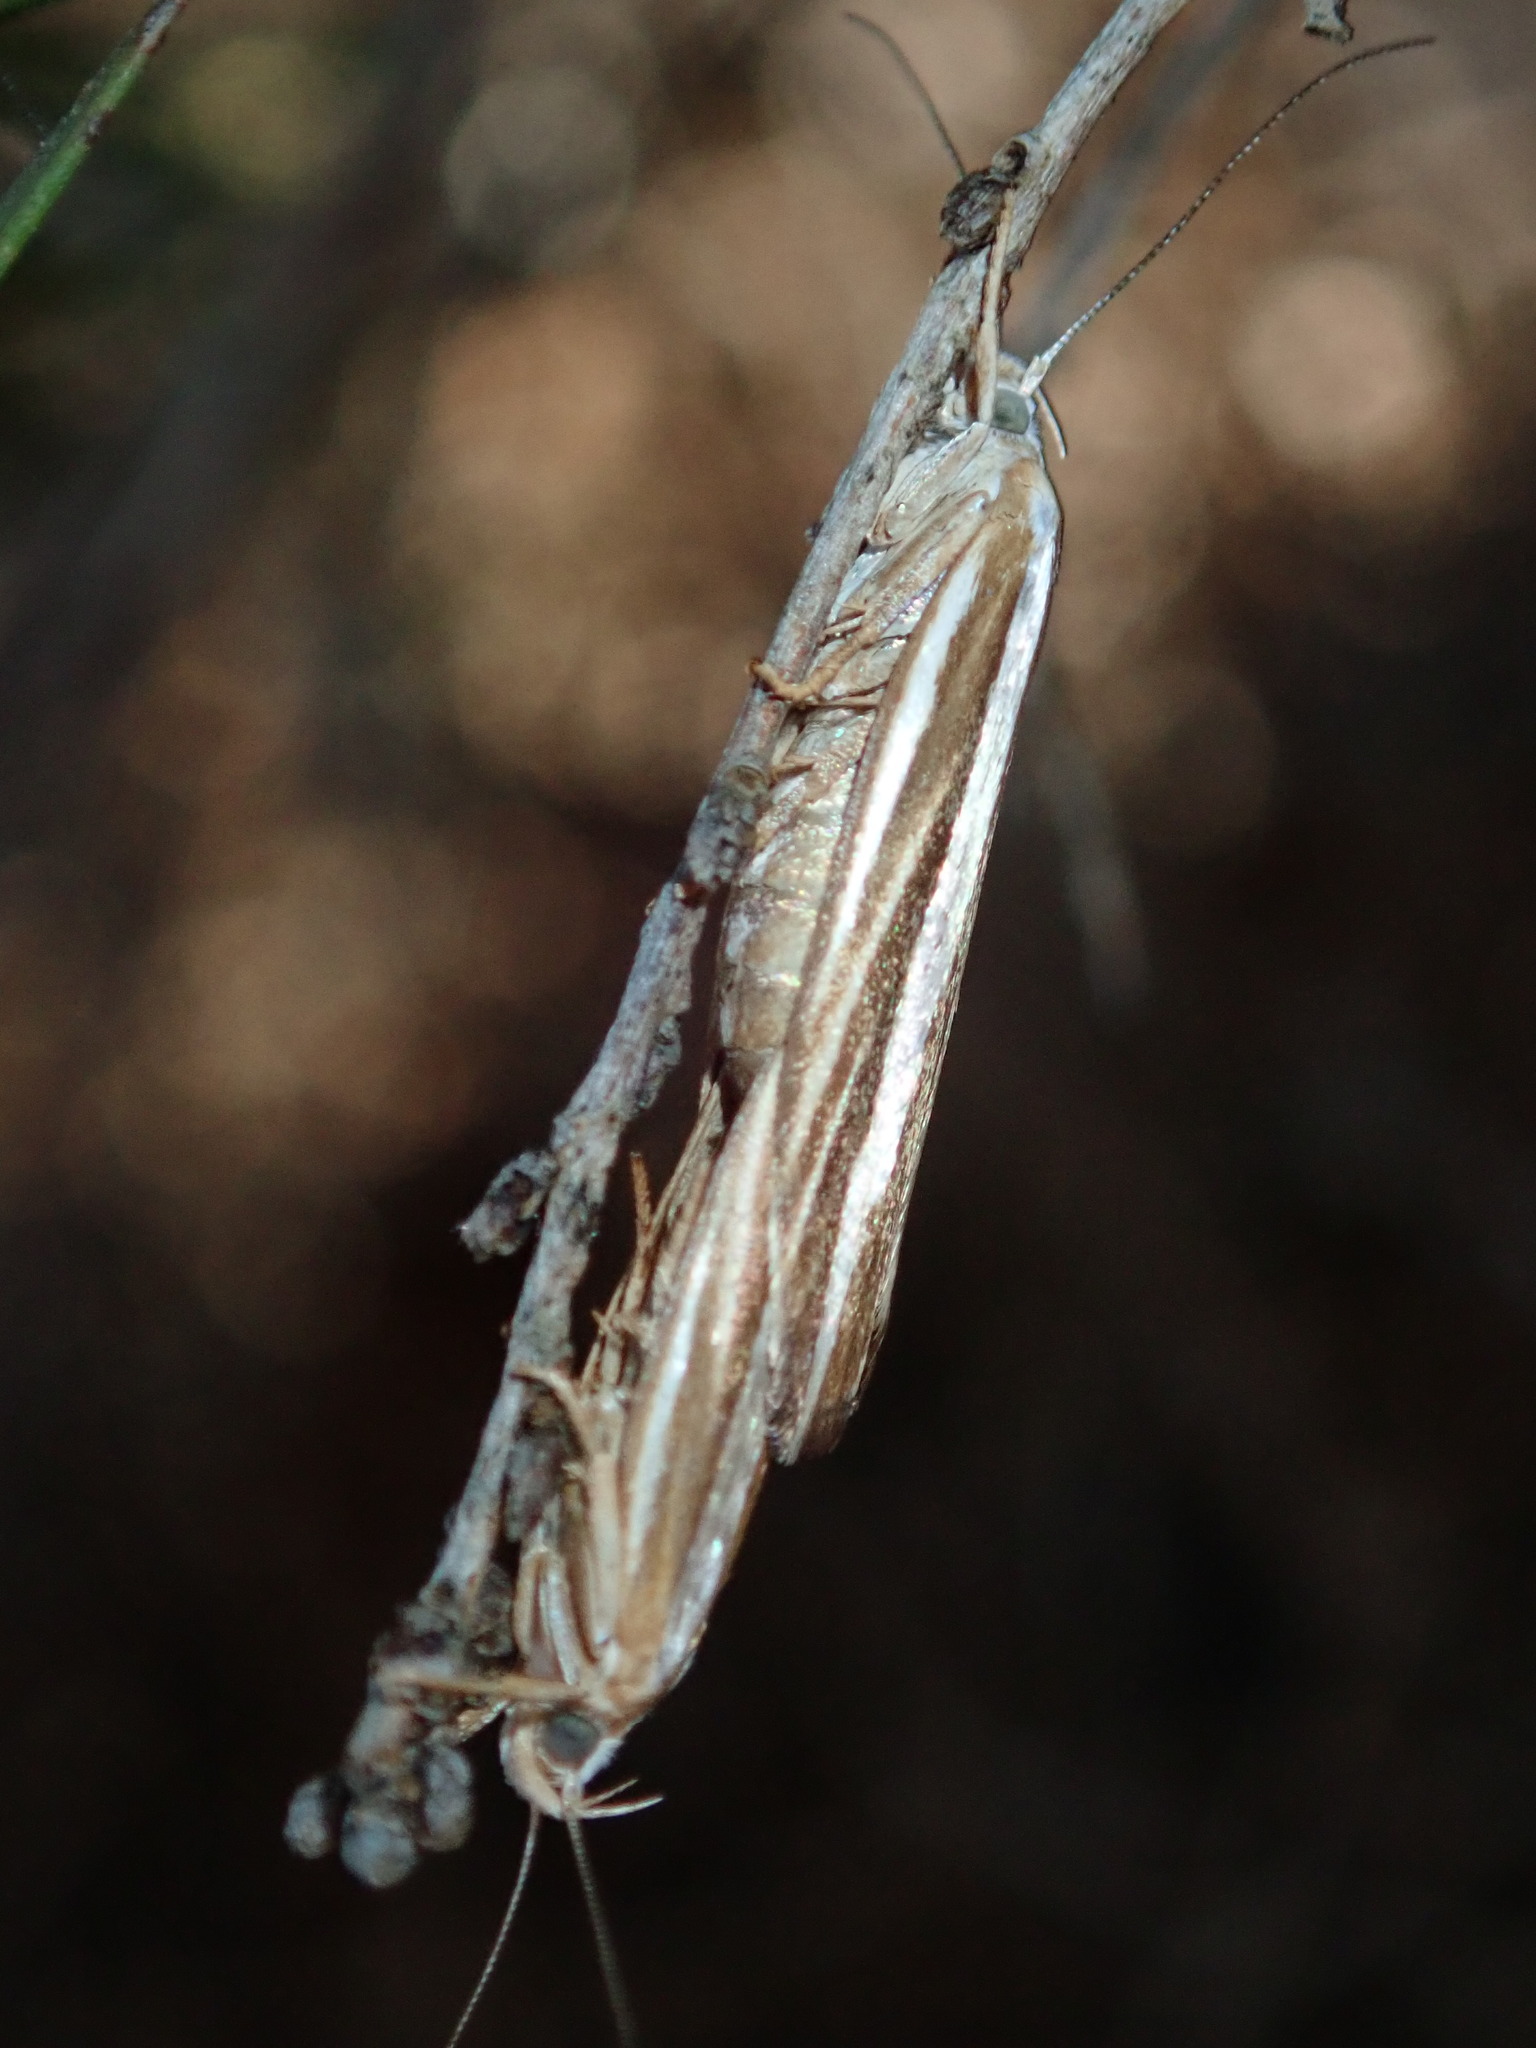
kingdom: Animalia
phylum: Arthropoda
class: Insecta
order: Lepidoptera
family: Xyloryctidae
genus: Catoryctis
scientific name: Catoryctis subparallela
